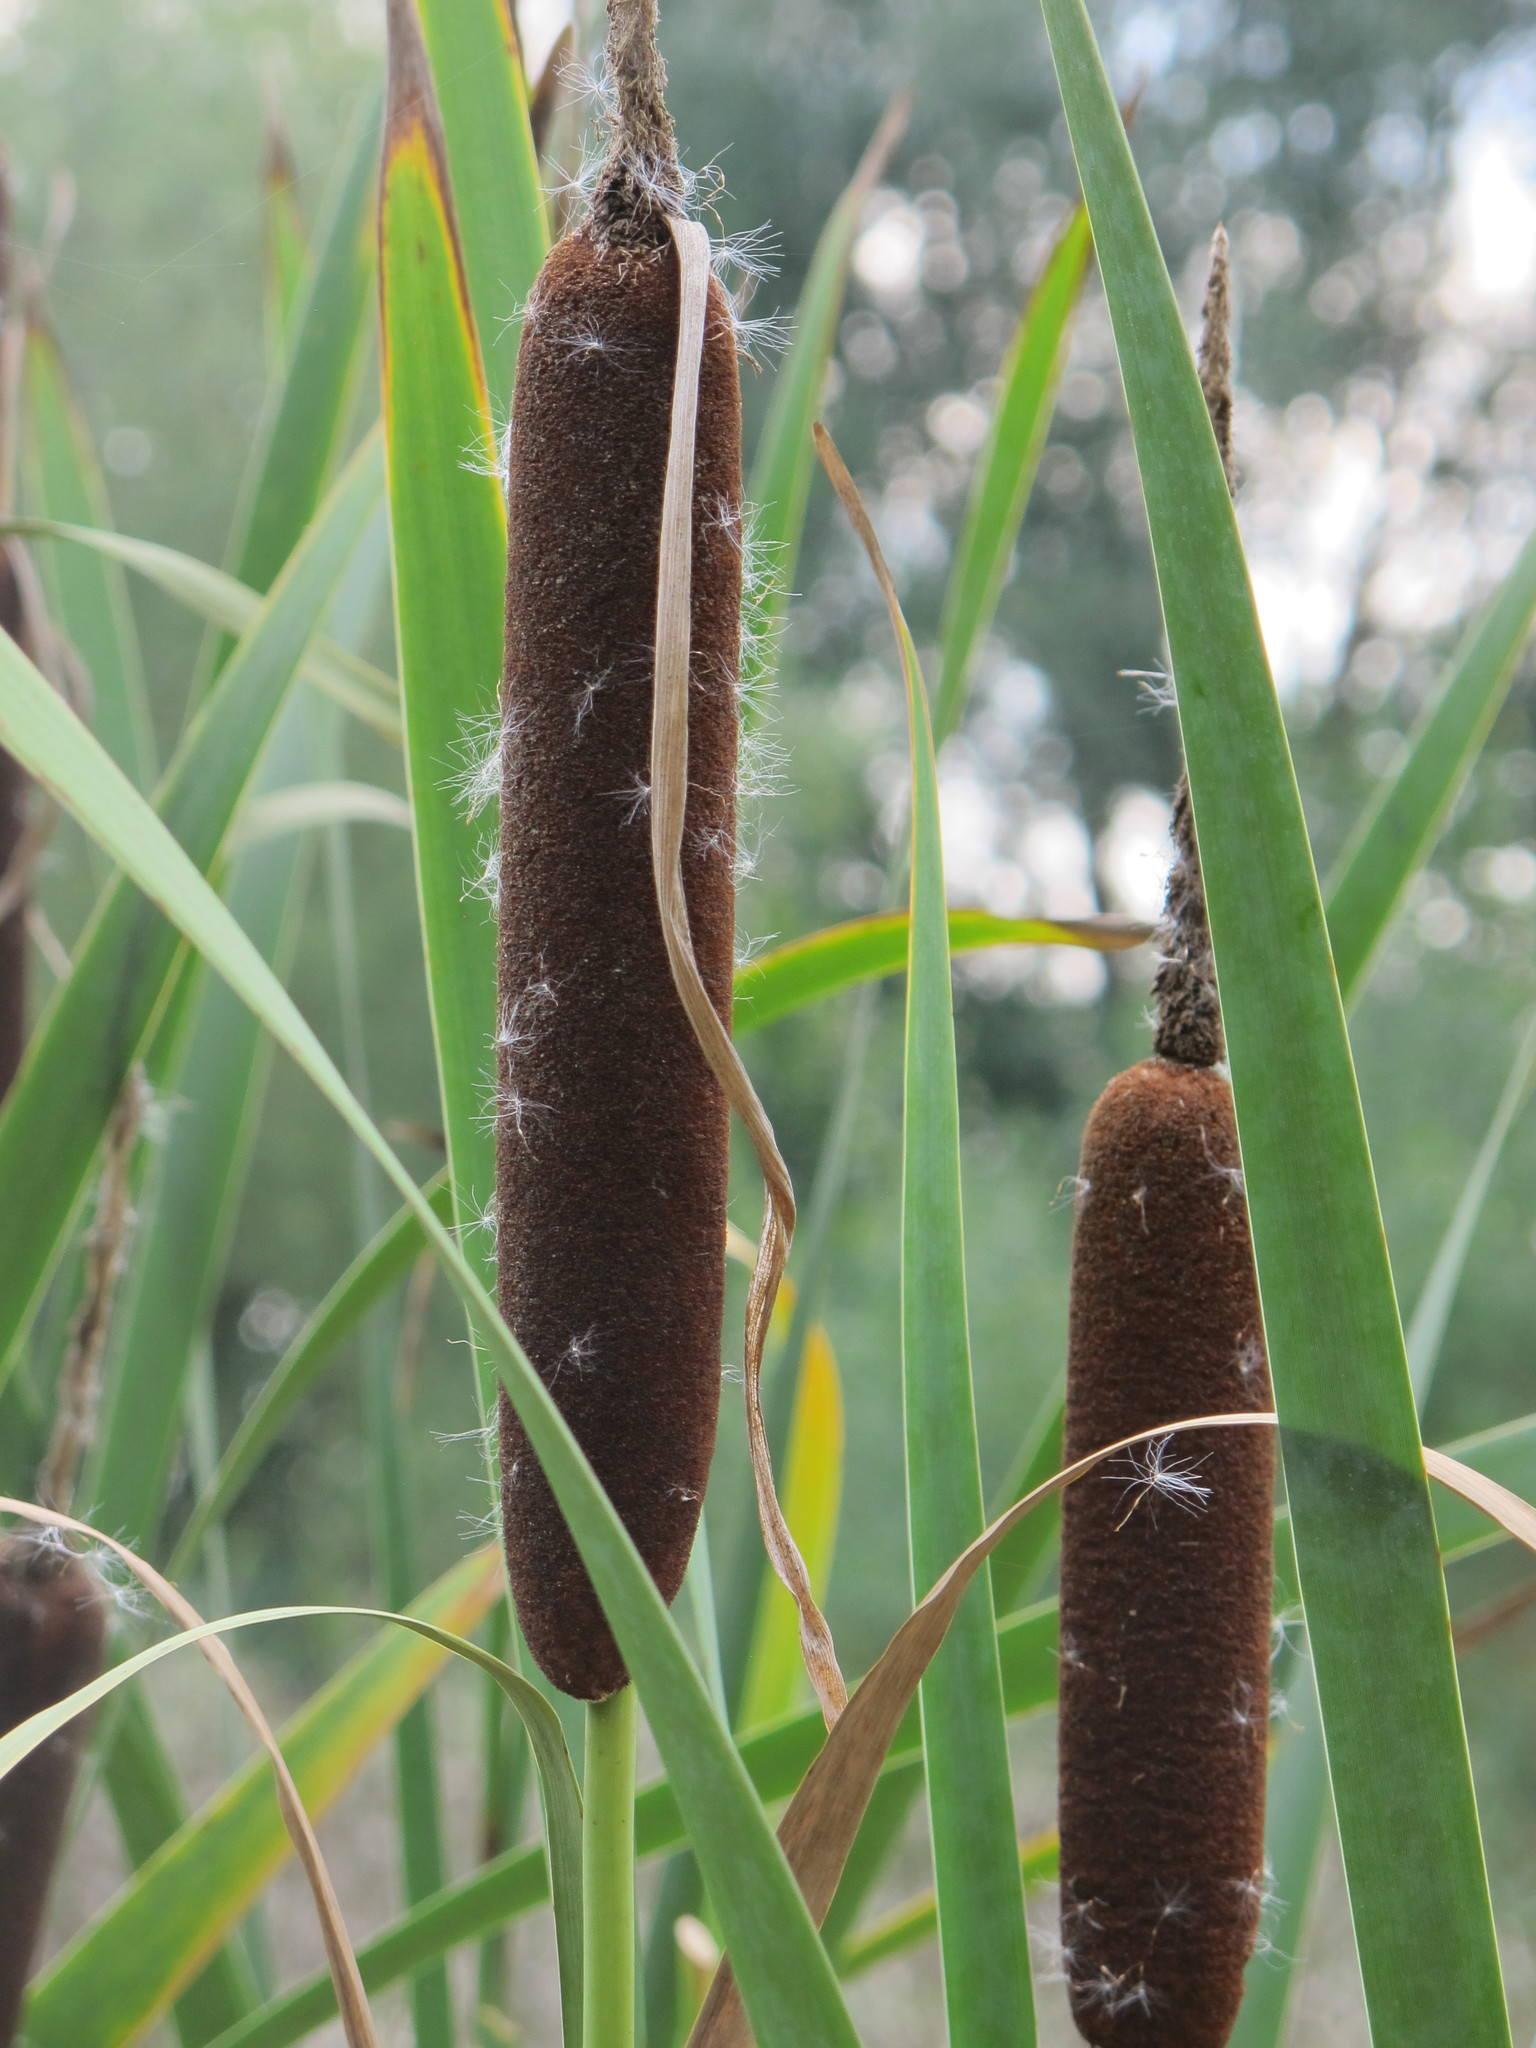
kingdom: Plantae
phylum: Tracheophyta
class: Liliopsida
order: Poales
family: Typhaceae
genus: Typha
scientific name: Typha latifolia
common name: Broadleaf cattail
